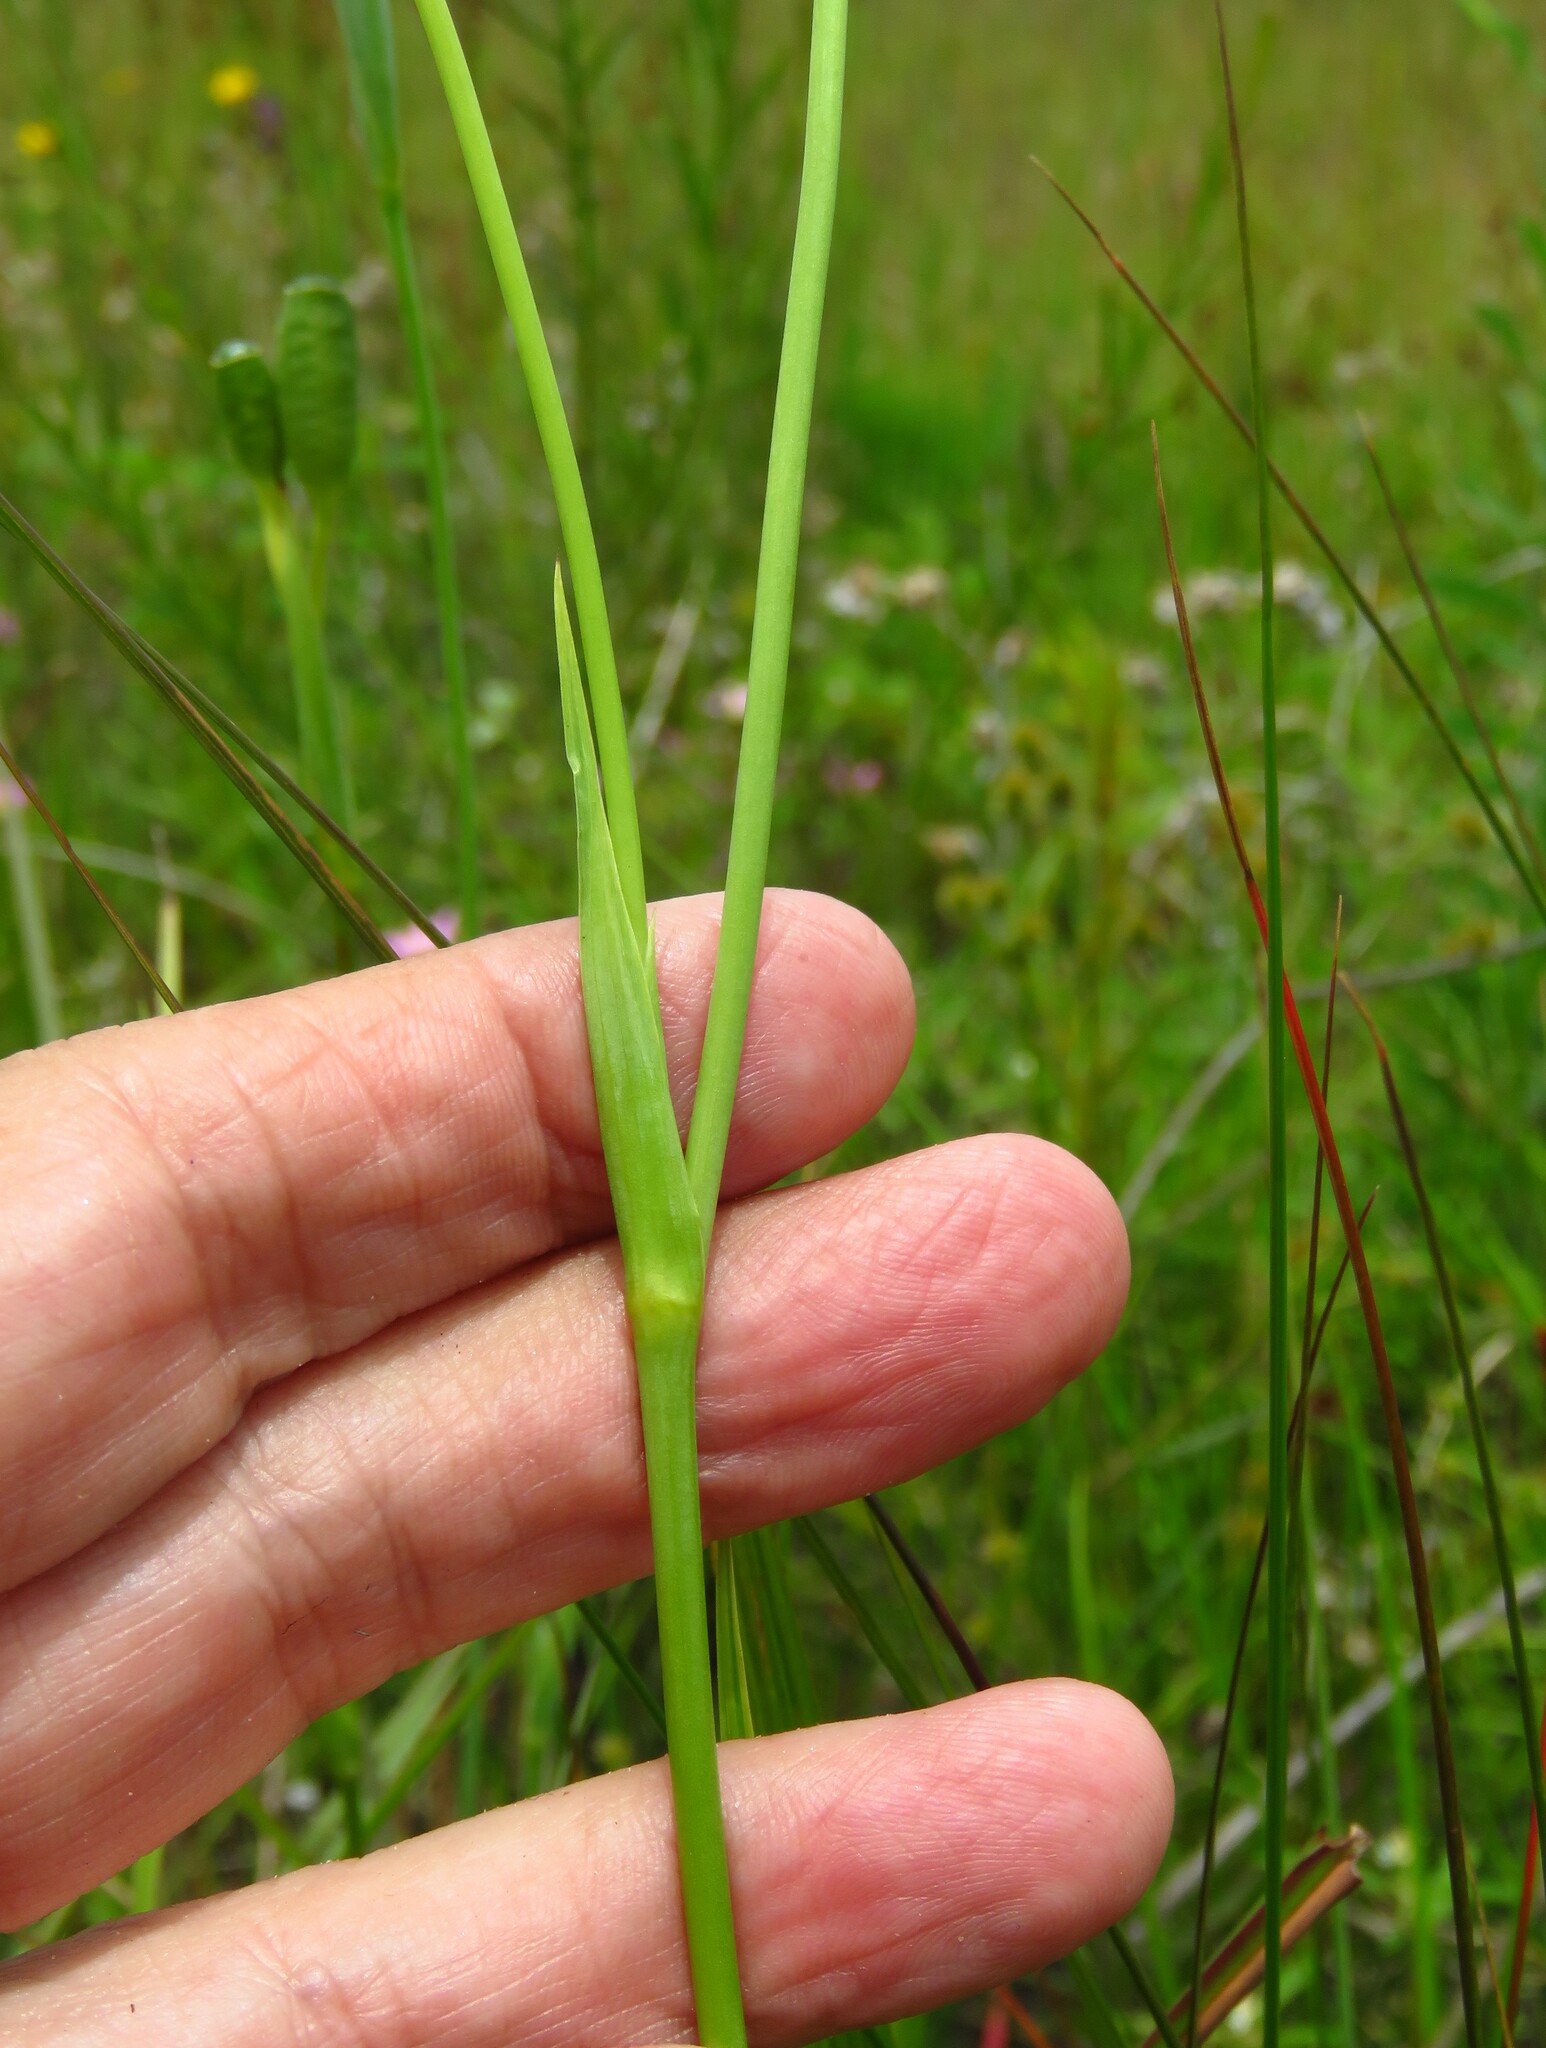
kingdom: Plantae
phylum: Tracheophyta
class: Liliopsida
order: Asparagales
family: Iridaceae
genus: Alophia
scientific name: Alophia drummondii
